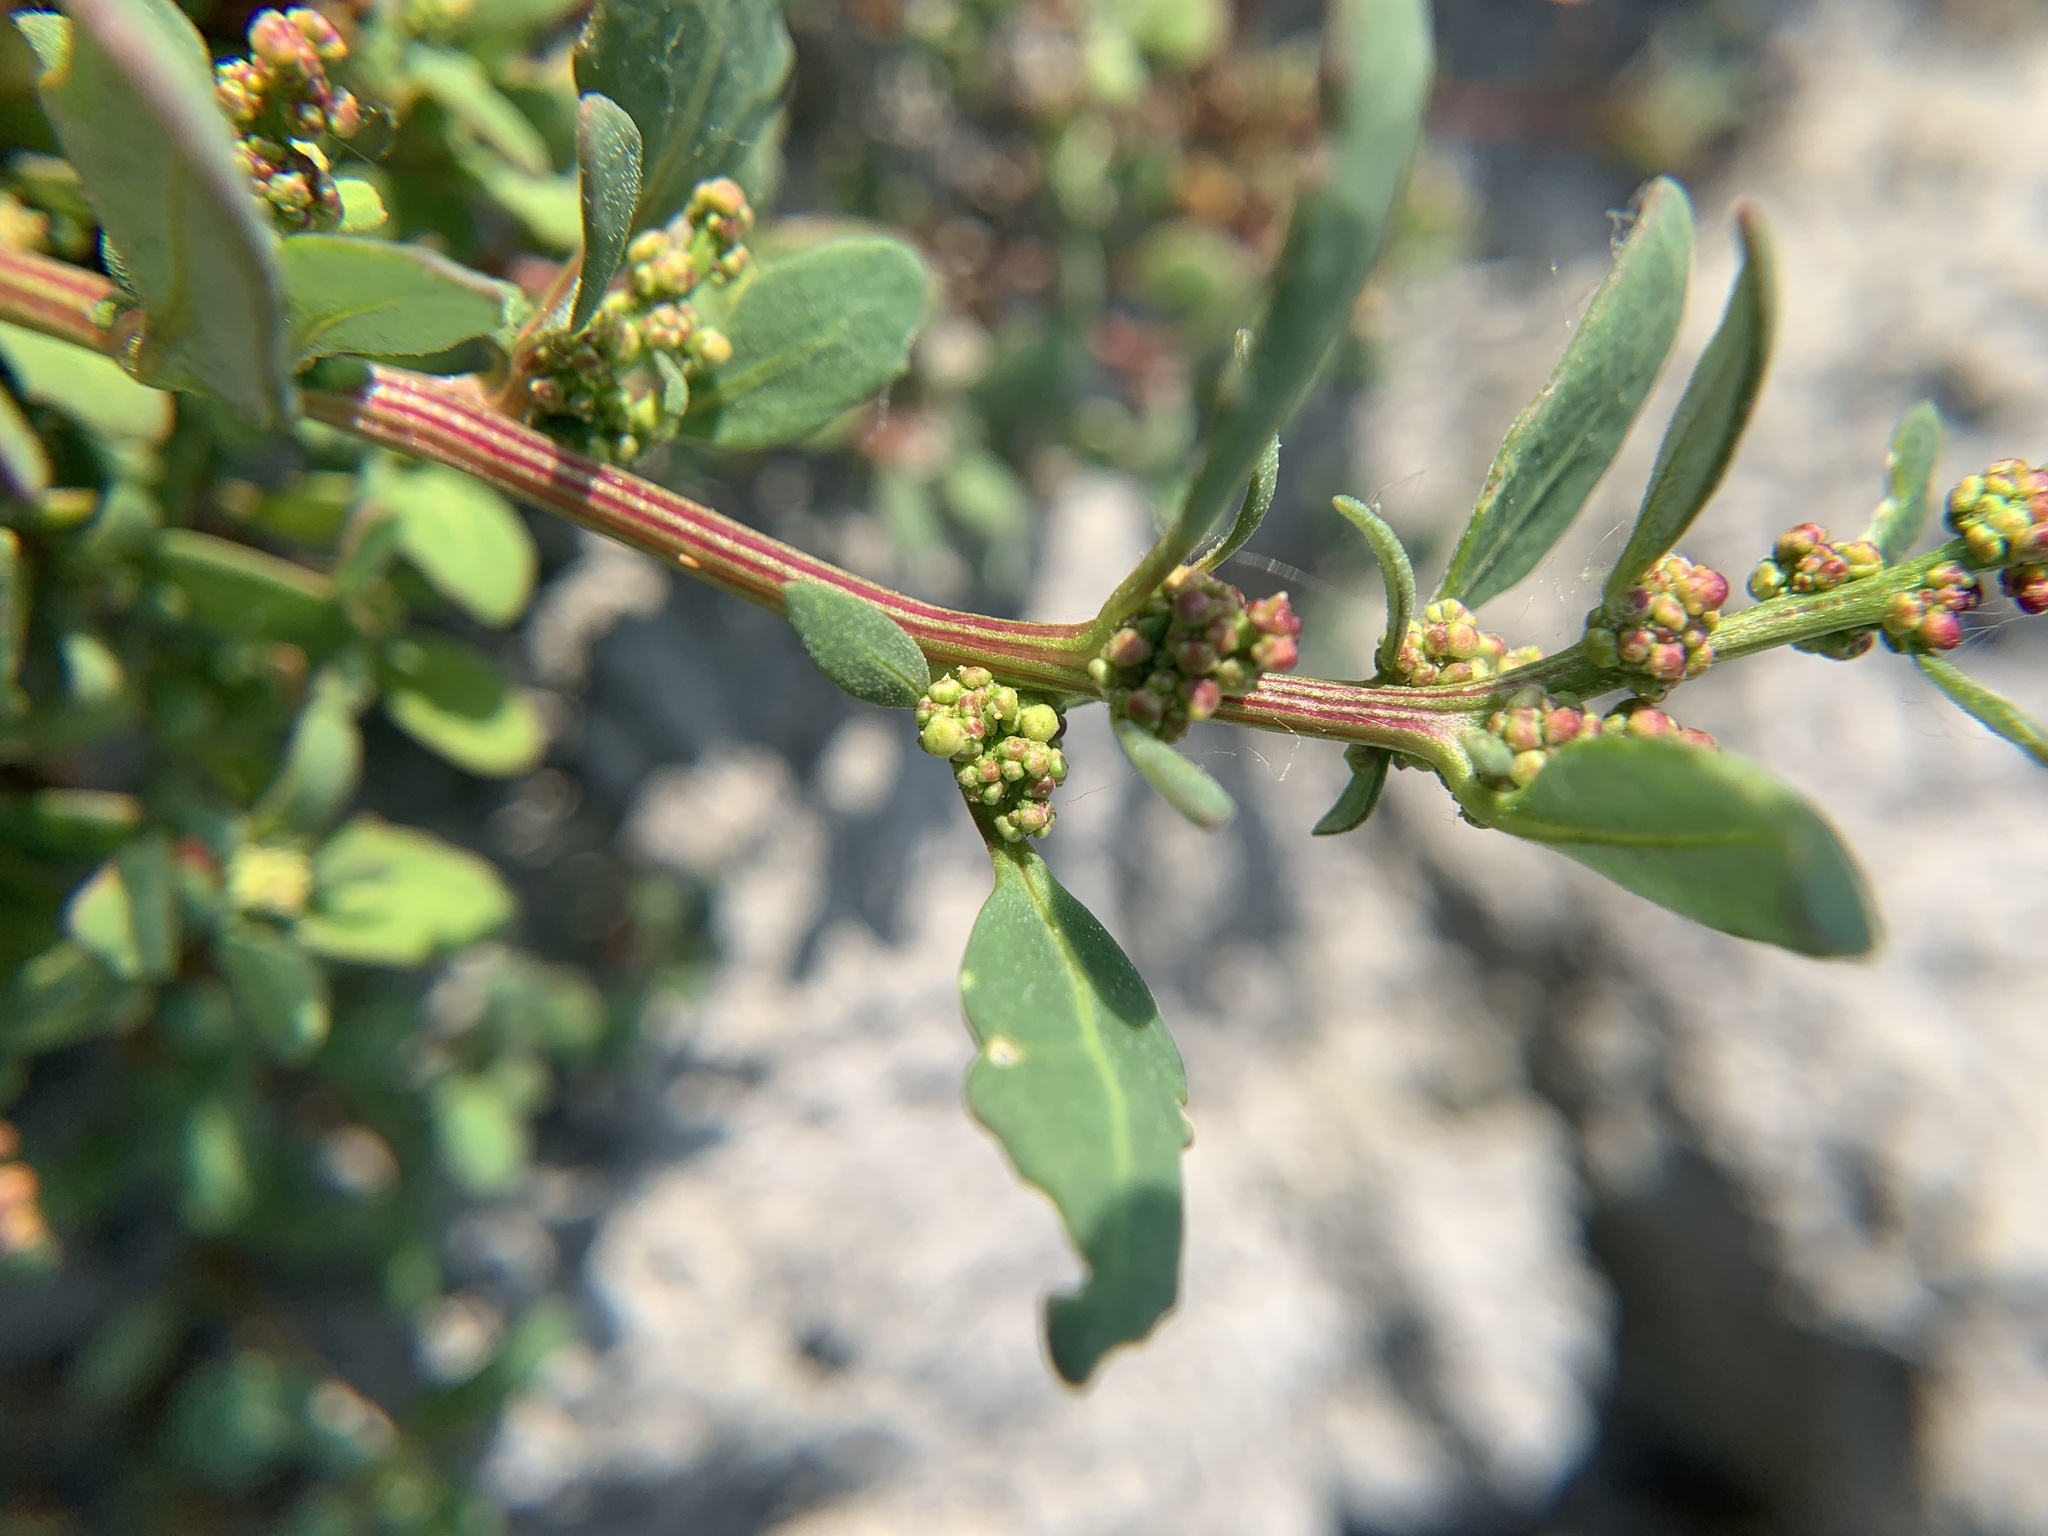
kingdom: Plantae
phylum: Tracheophyta
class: Magnoliopsida
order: Caryophyllales
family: Amaranthaceae
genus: Oxybasis
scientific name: Oxybasis glauca
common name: Glaucous goosefoot
